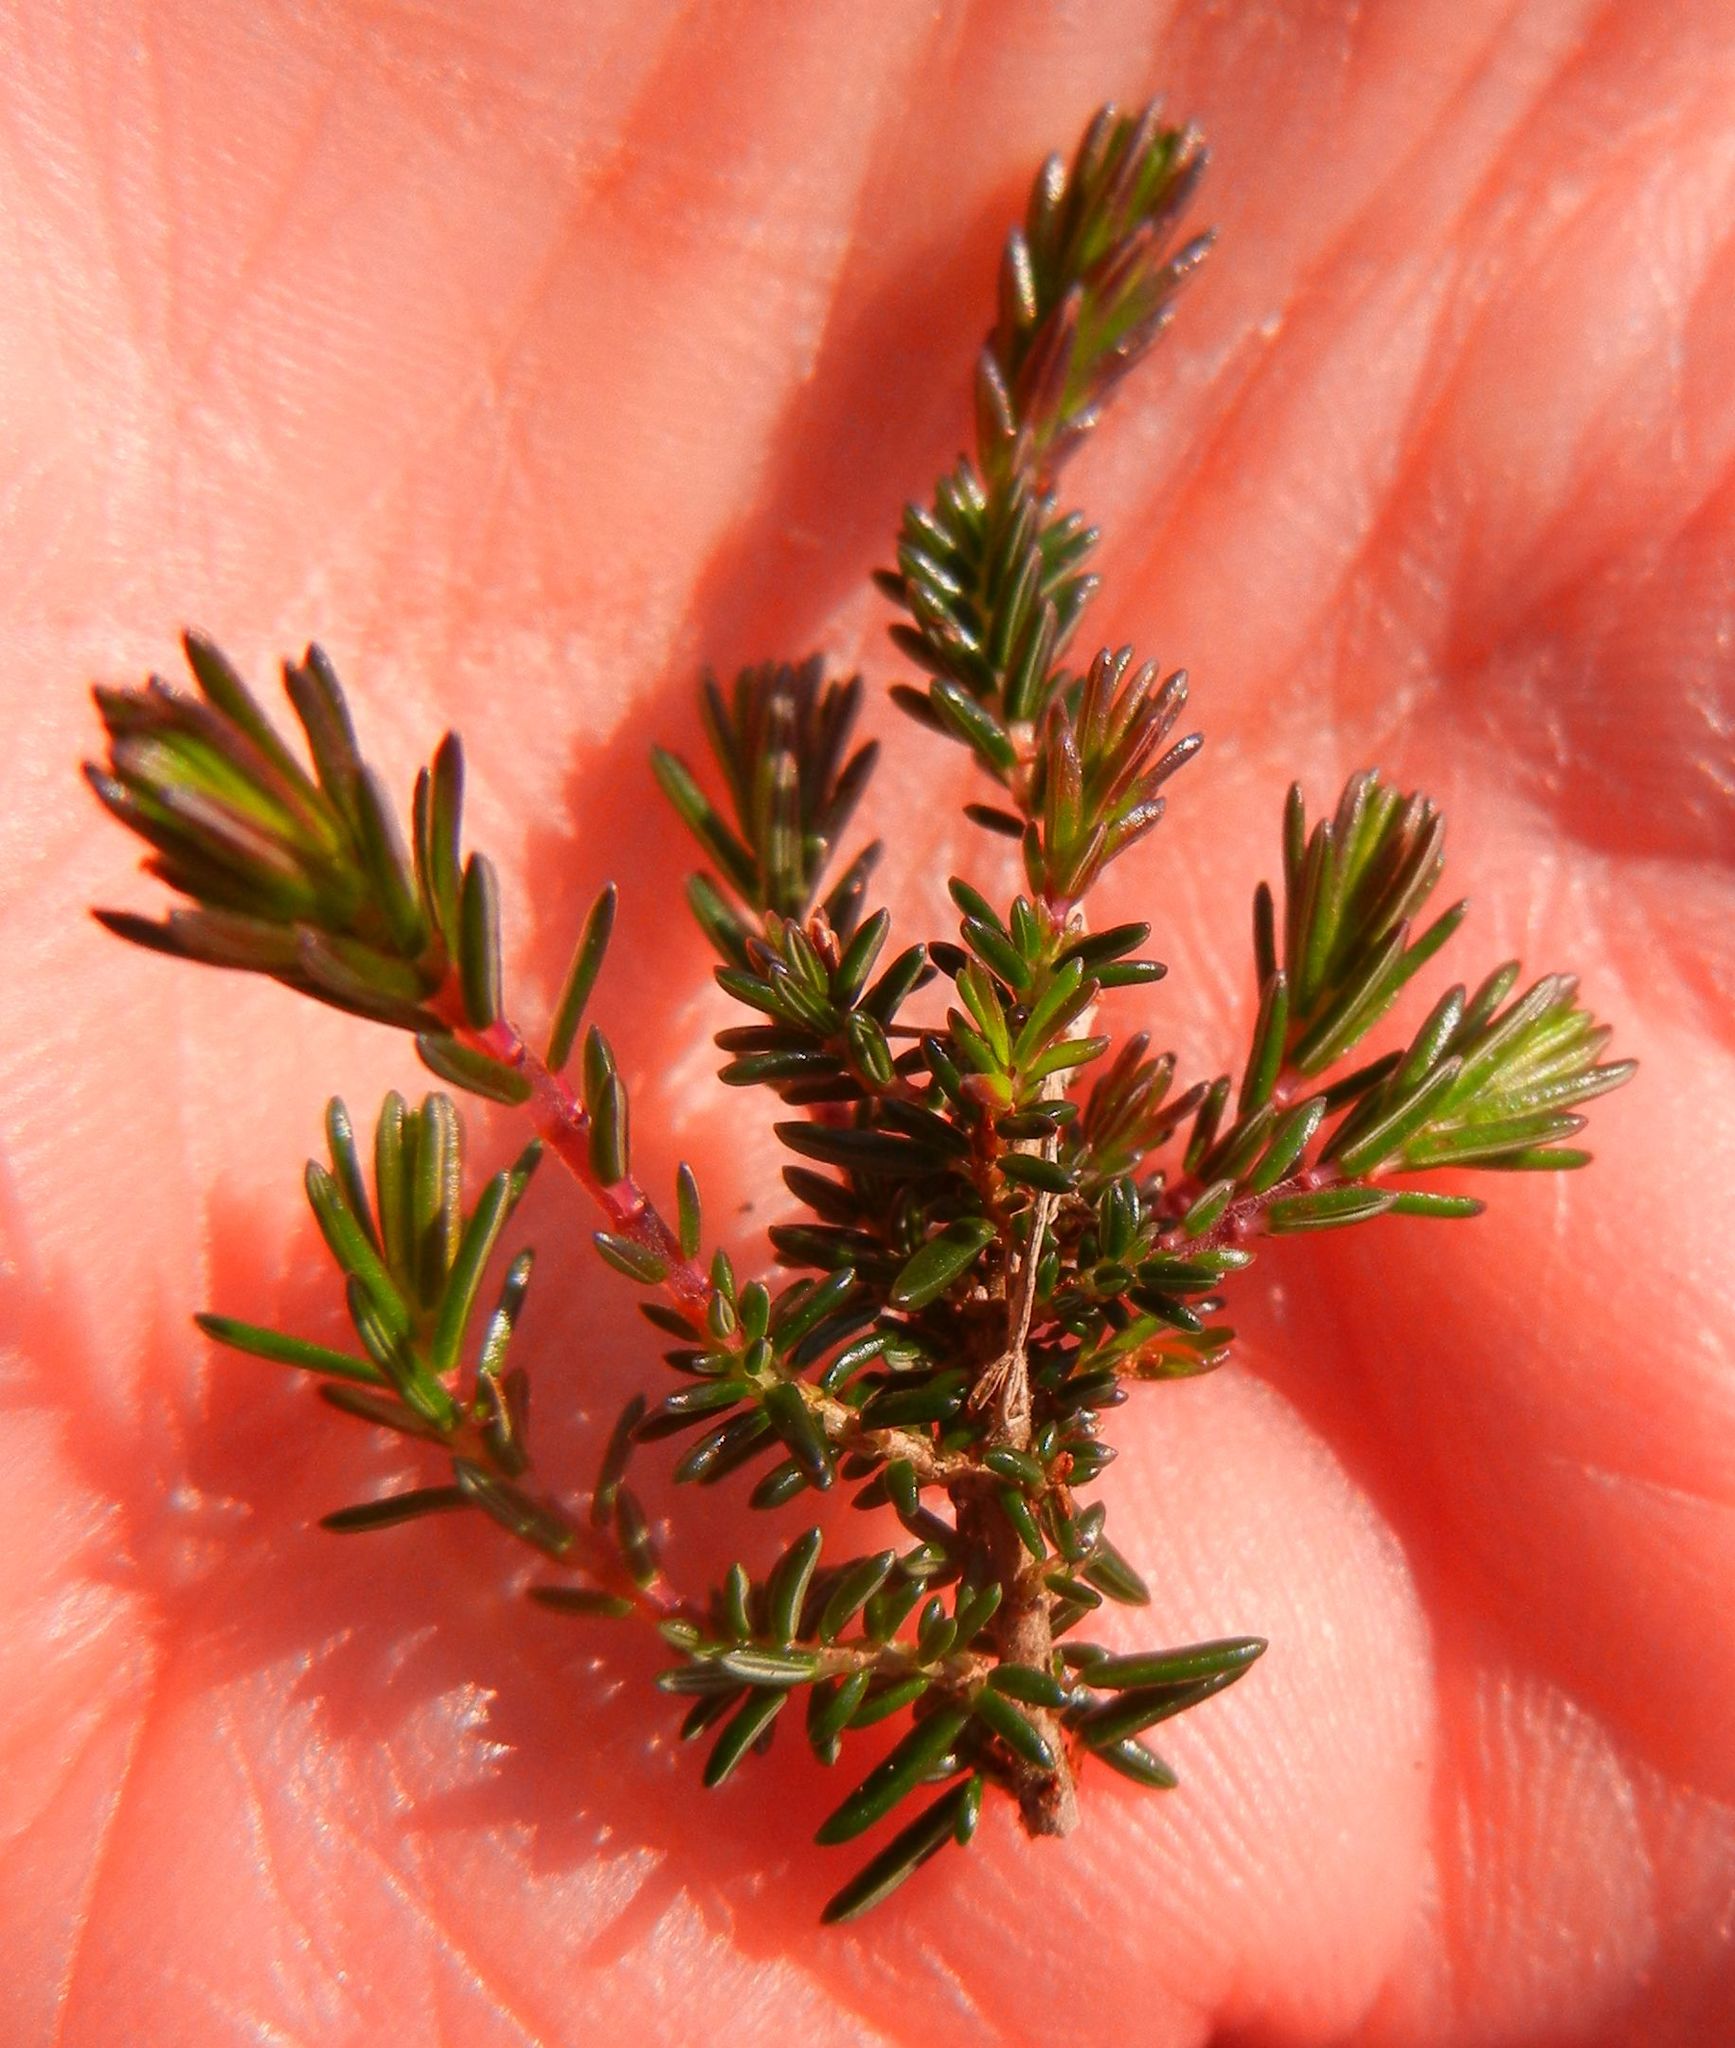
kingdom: Plantae
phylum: Tracheophyta
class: Magnoliopsida
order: Ericales
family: Ericaceae
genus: Empetrum
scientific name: Empetrum nigrum
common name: Black crowberry
